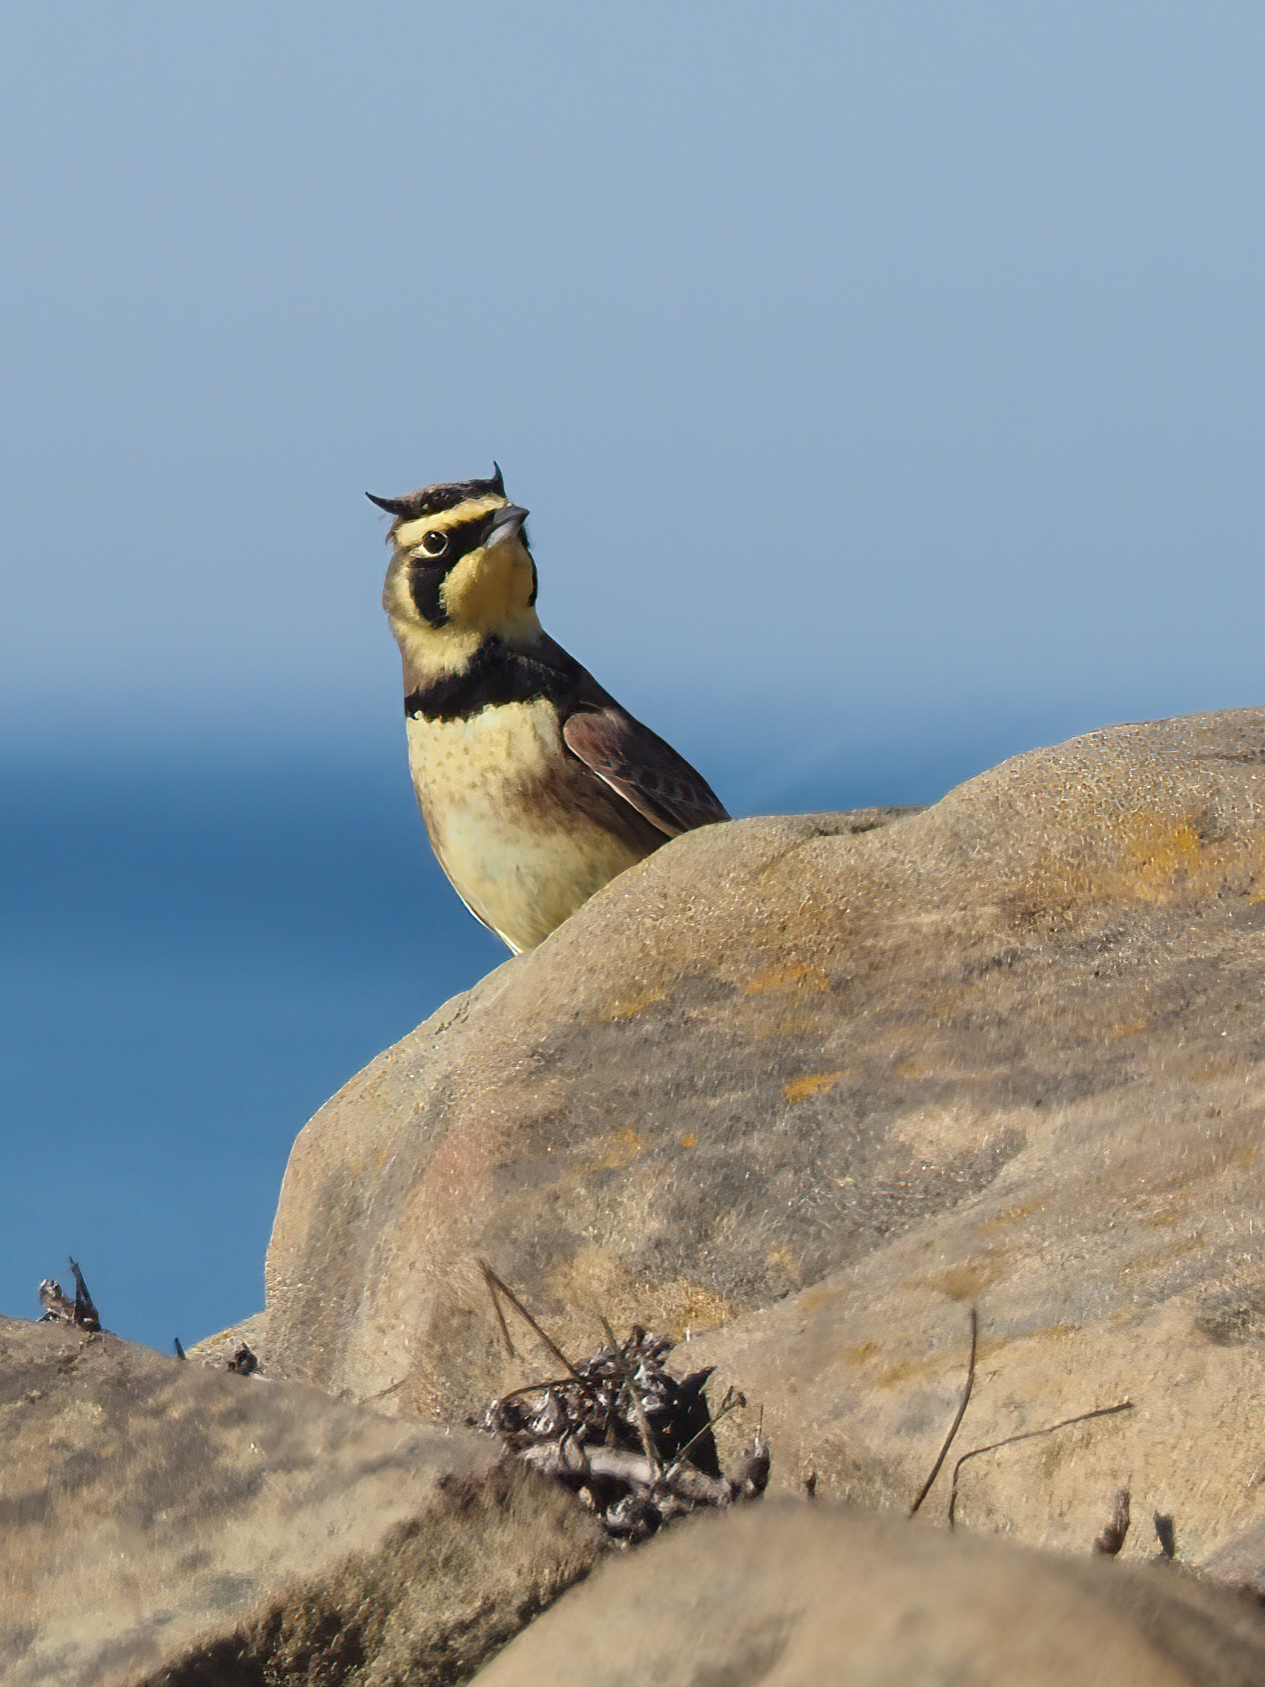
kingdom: Animalia
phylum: Chordata
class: Aves
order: Passeriformes
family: Alaudidae
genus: Eremophila
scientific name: Eremophila alpestris
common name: Horned lark
